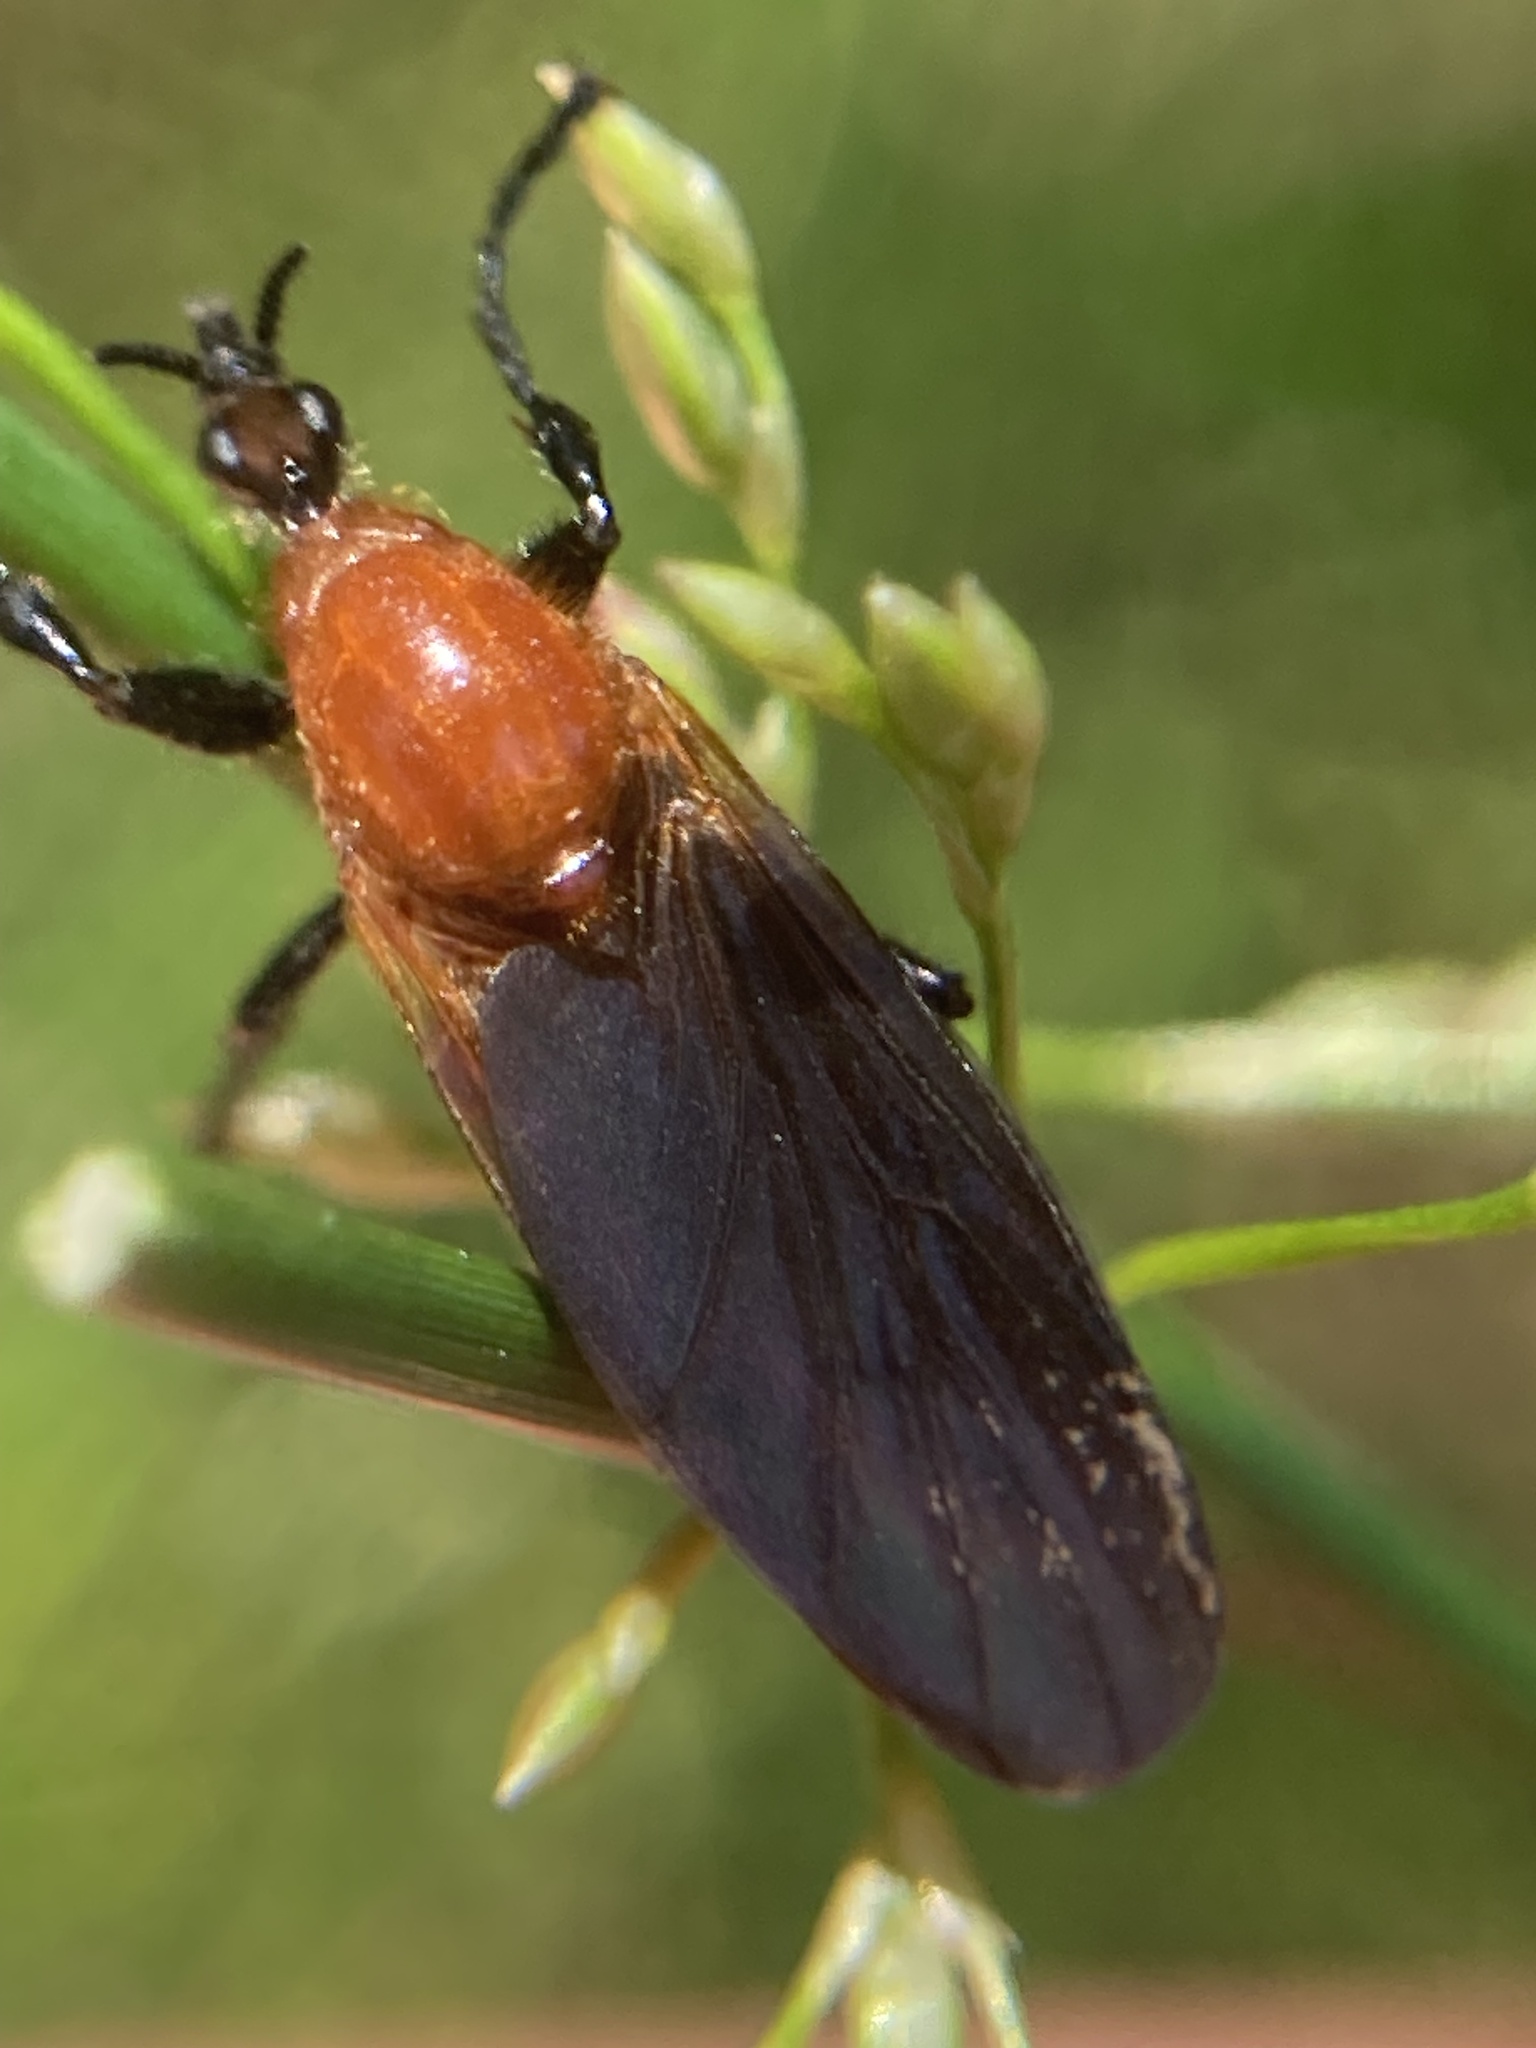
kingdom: Animalia
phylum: Arthropoda
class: Insecta
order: Diptera
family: Bibionidae
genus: Bibio
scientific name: Bibio imitator
